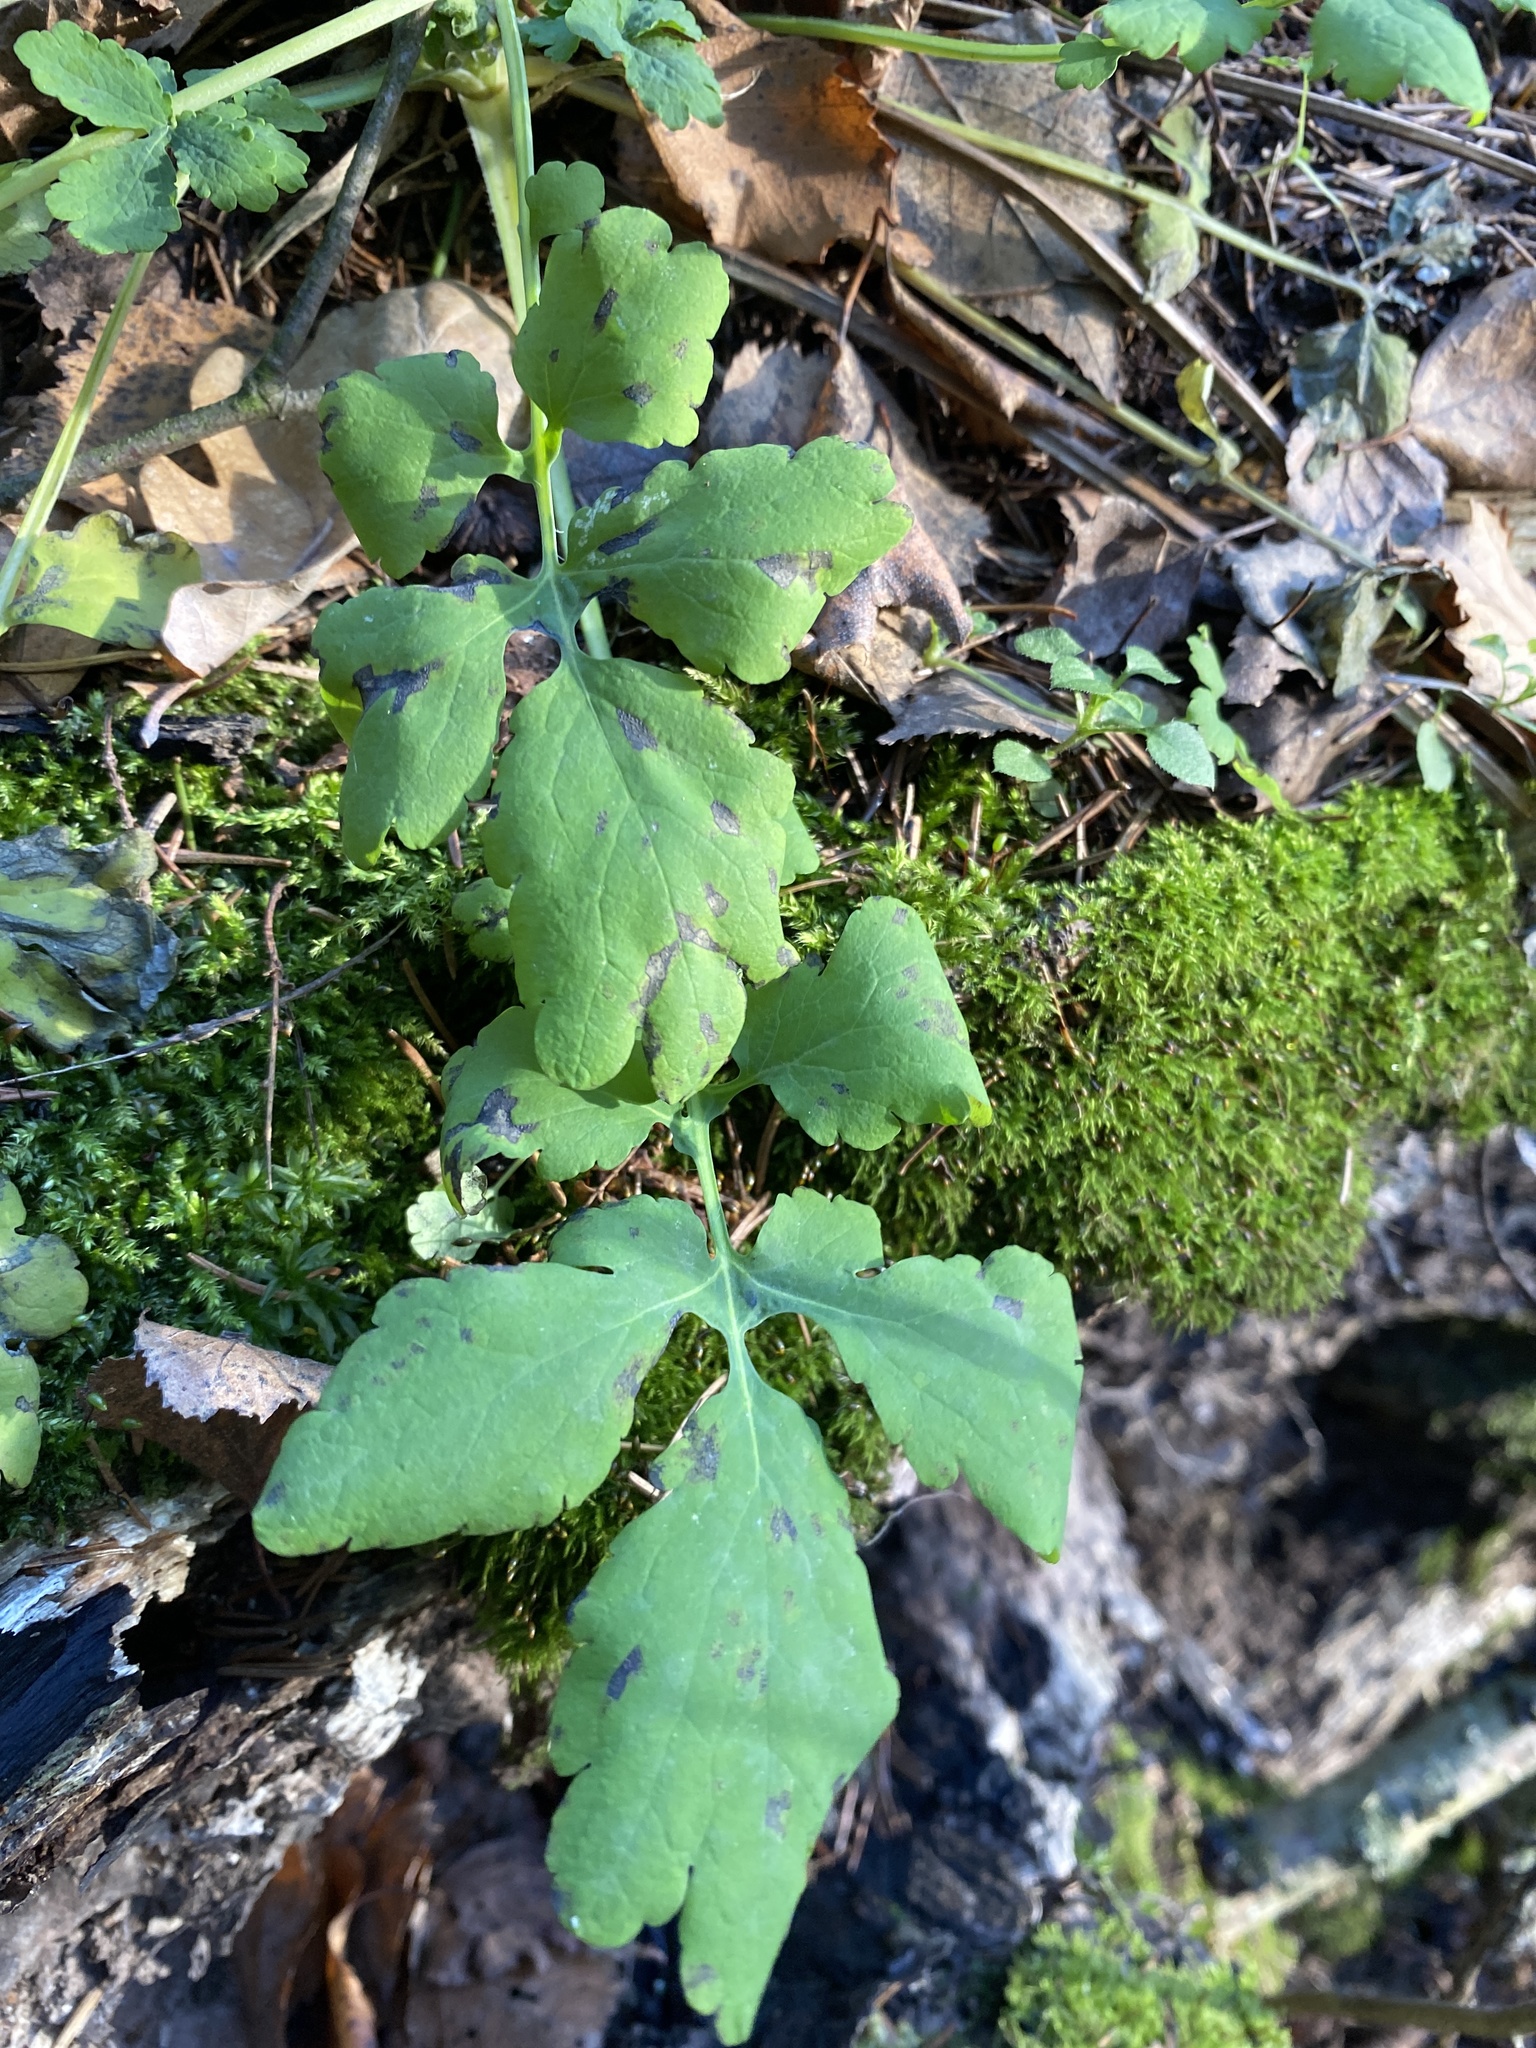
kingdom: Plantae
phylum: Tracheophyta
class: Magnoliopsida
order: Ranunculales
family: Papaveraceae
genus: Chelidonium
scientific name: Chelidonium majus
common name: Greater celandine
